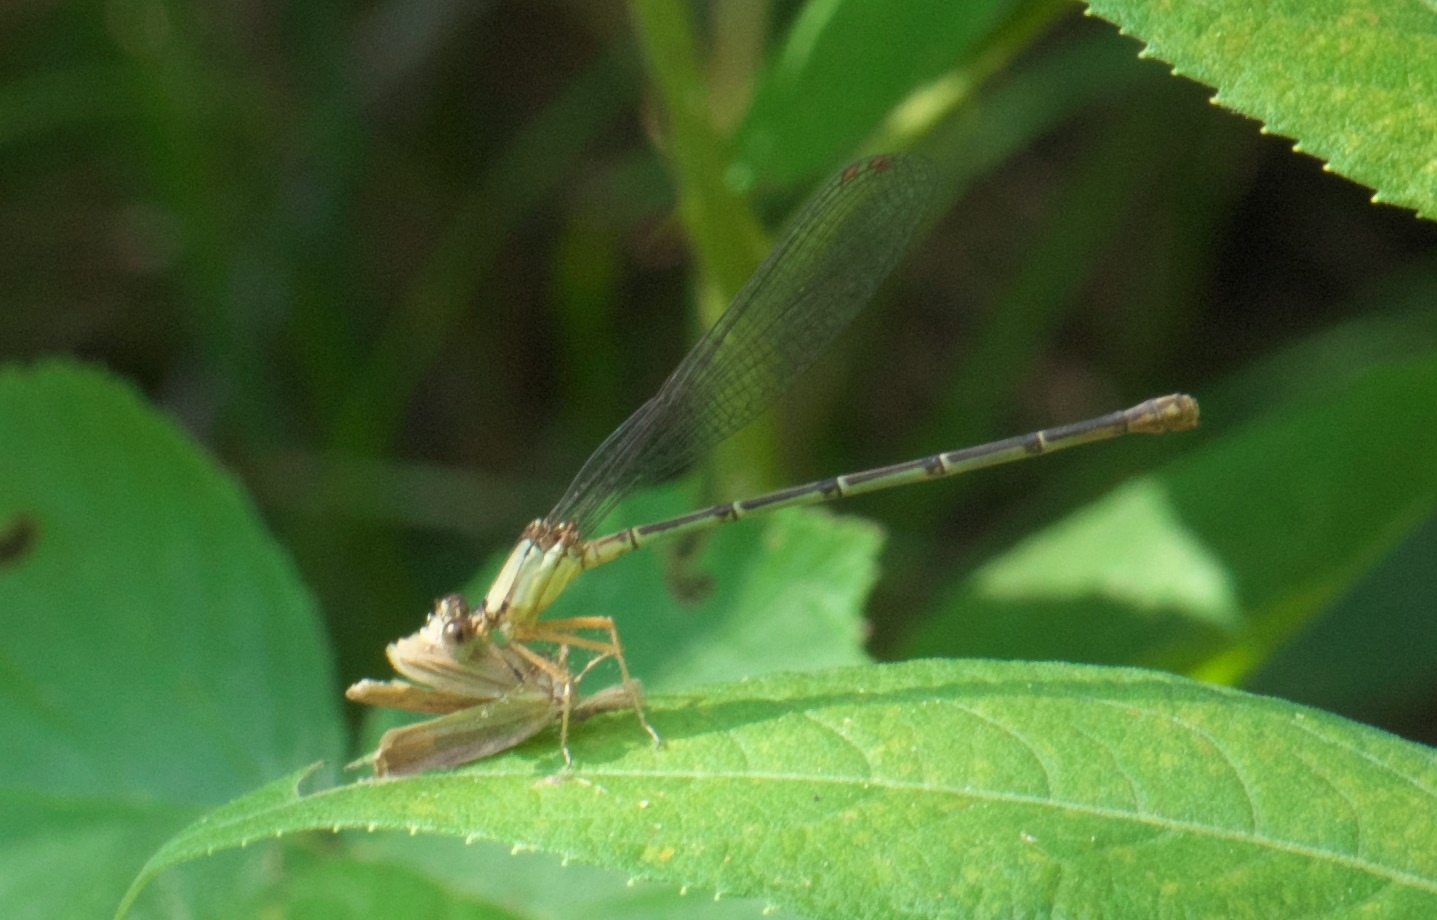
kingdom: Animalia
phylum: Arthropoda
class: Insecta
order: Odonata
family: Coenagrionidae
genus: Argia
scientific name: Argia apicalis
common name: Blue-fronted dancer
